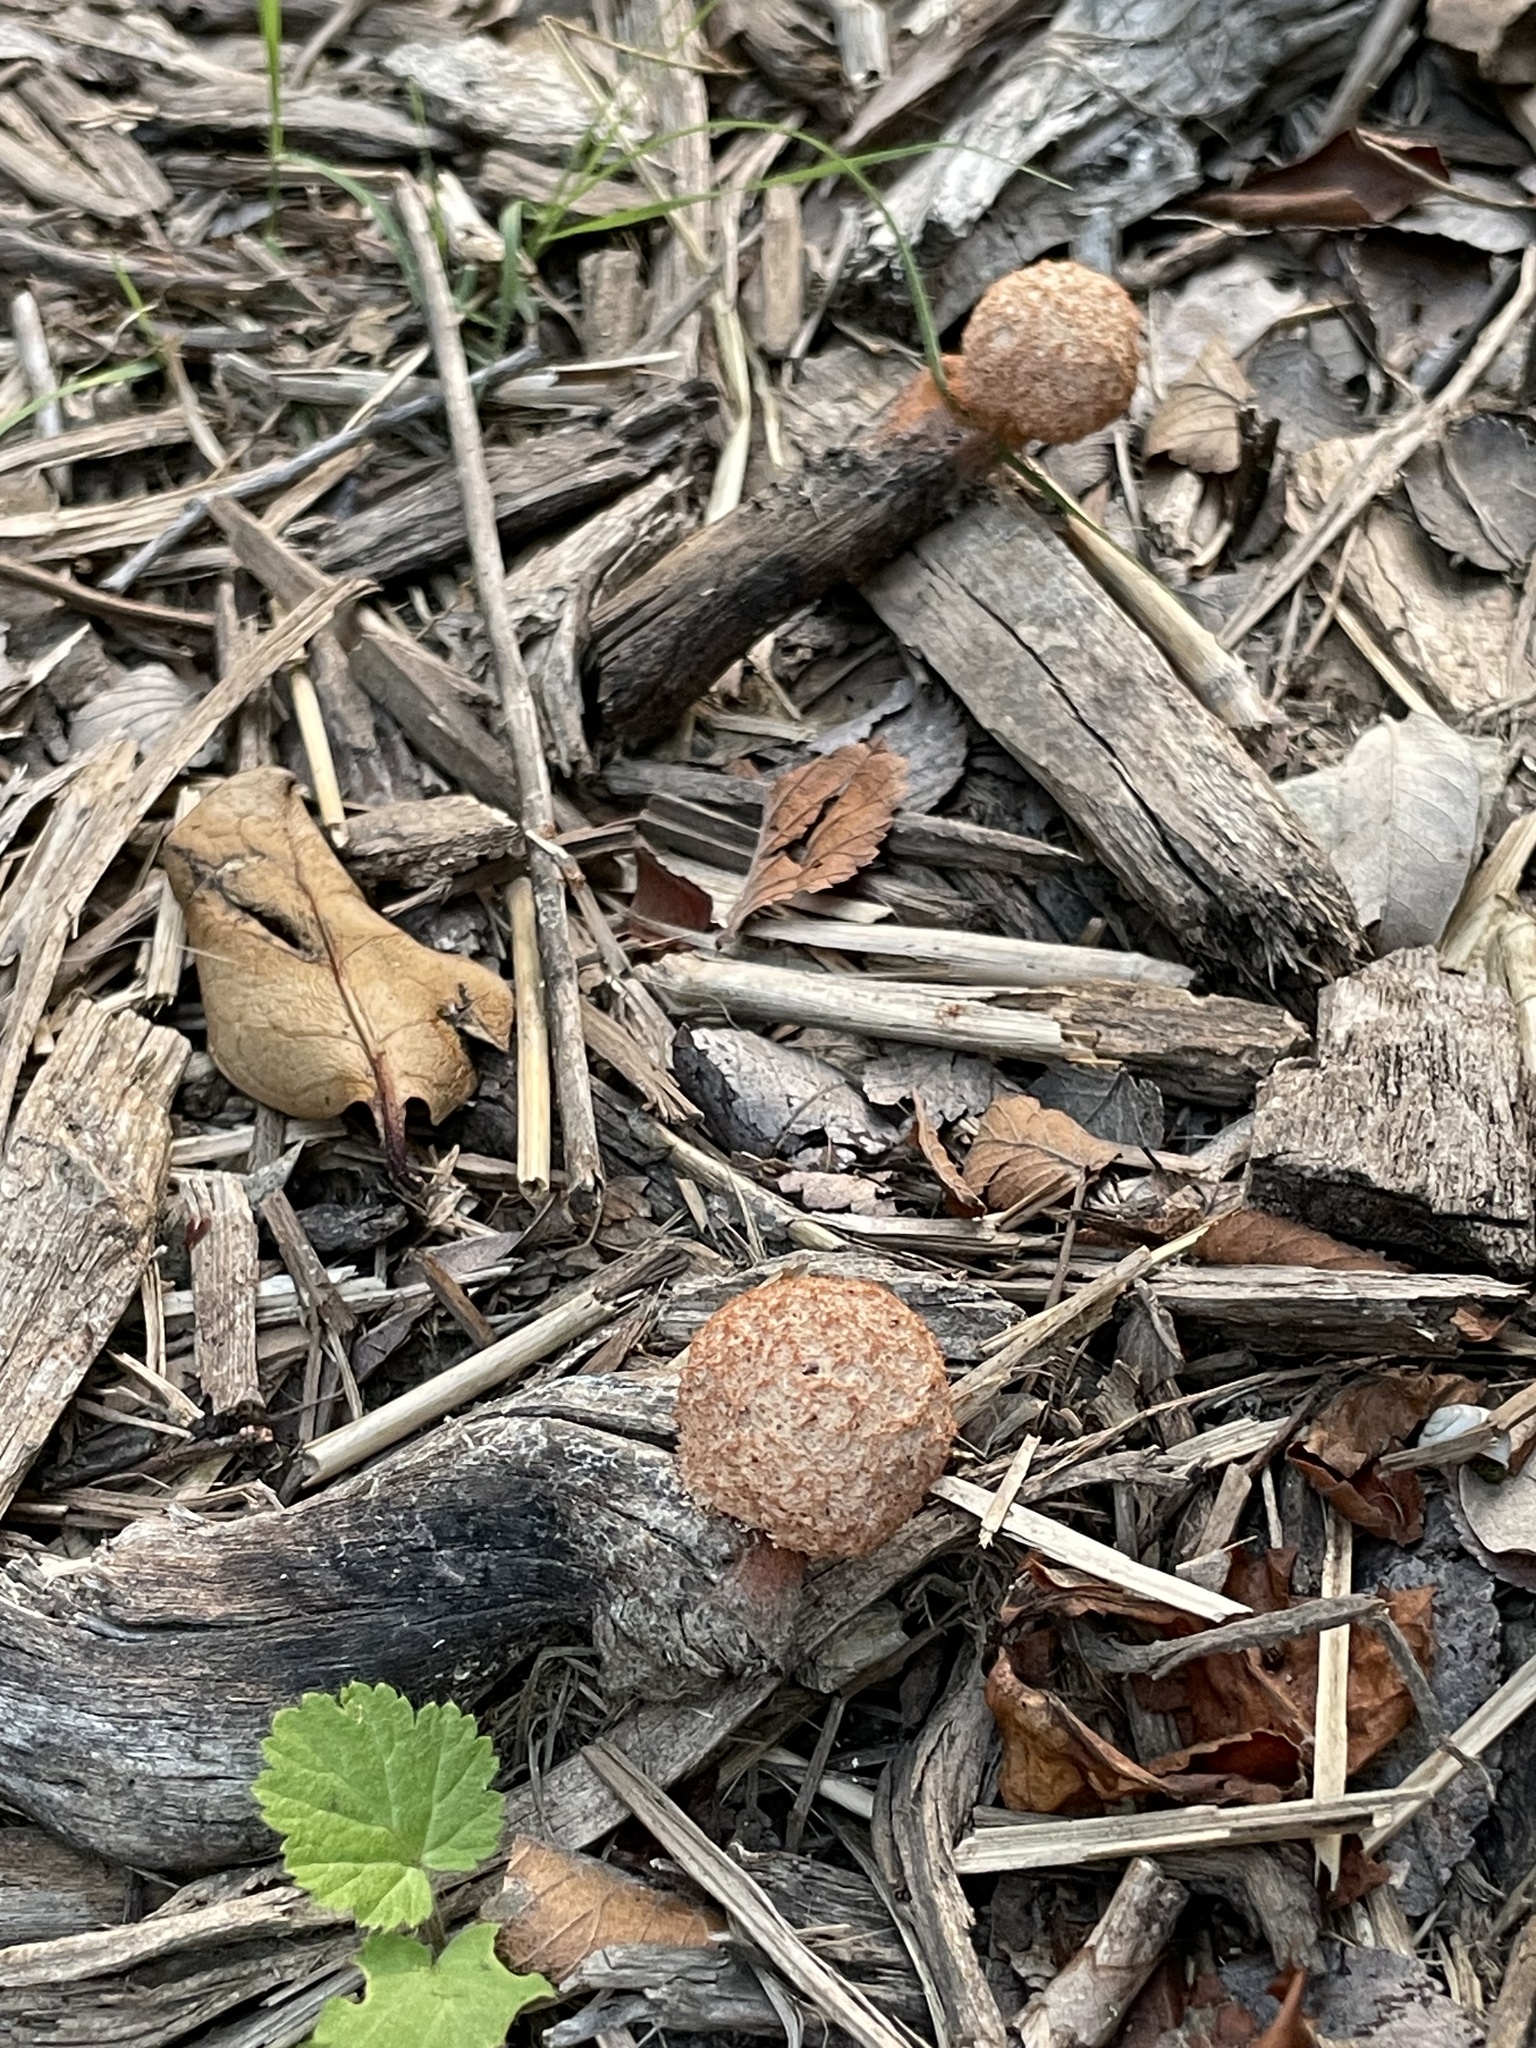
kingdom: Protozoa
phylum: Mycetozoa
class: Myxomycetes
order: Physarales
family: Physaraceae
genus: Fuligo
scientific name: Fuligo septica
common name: Dog vomit slime mold
